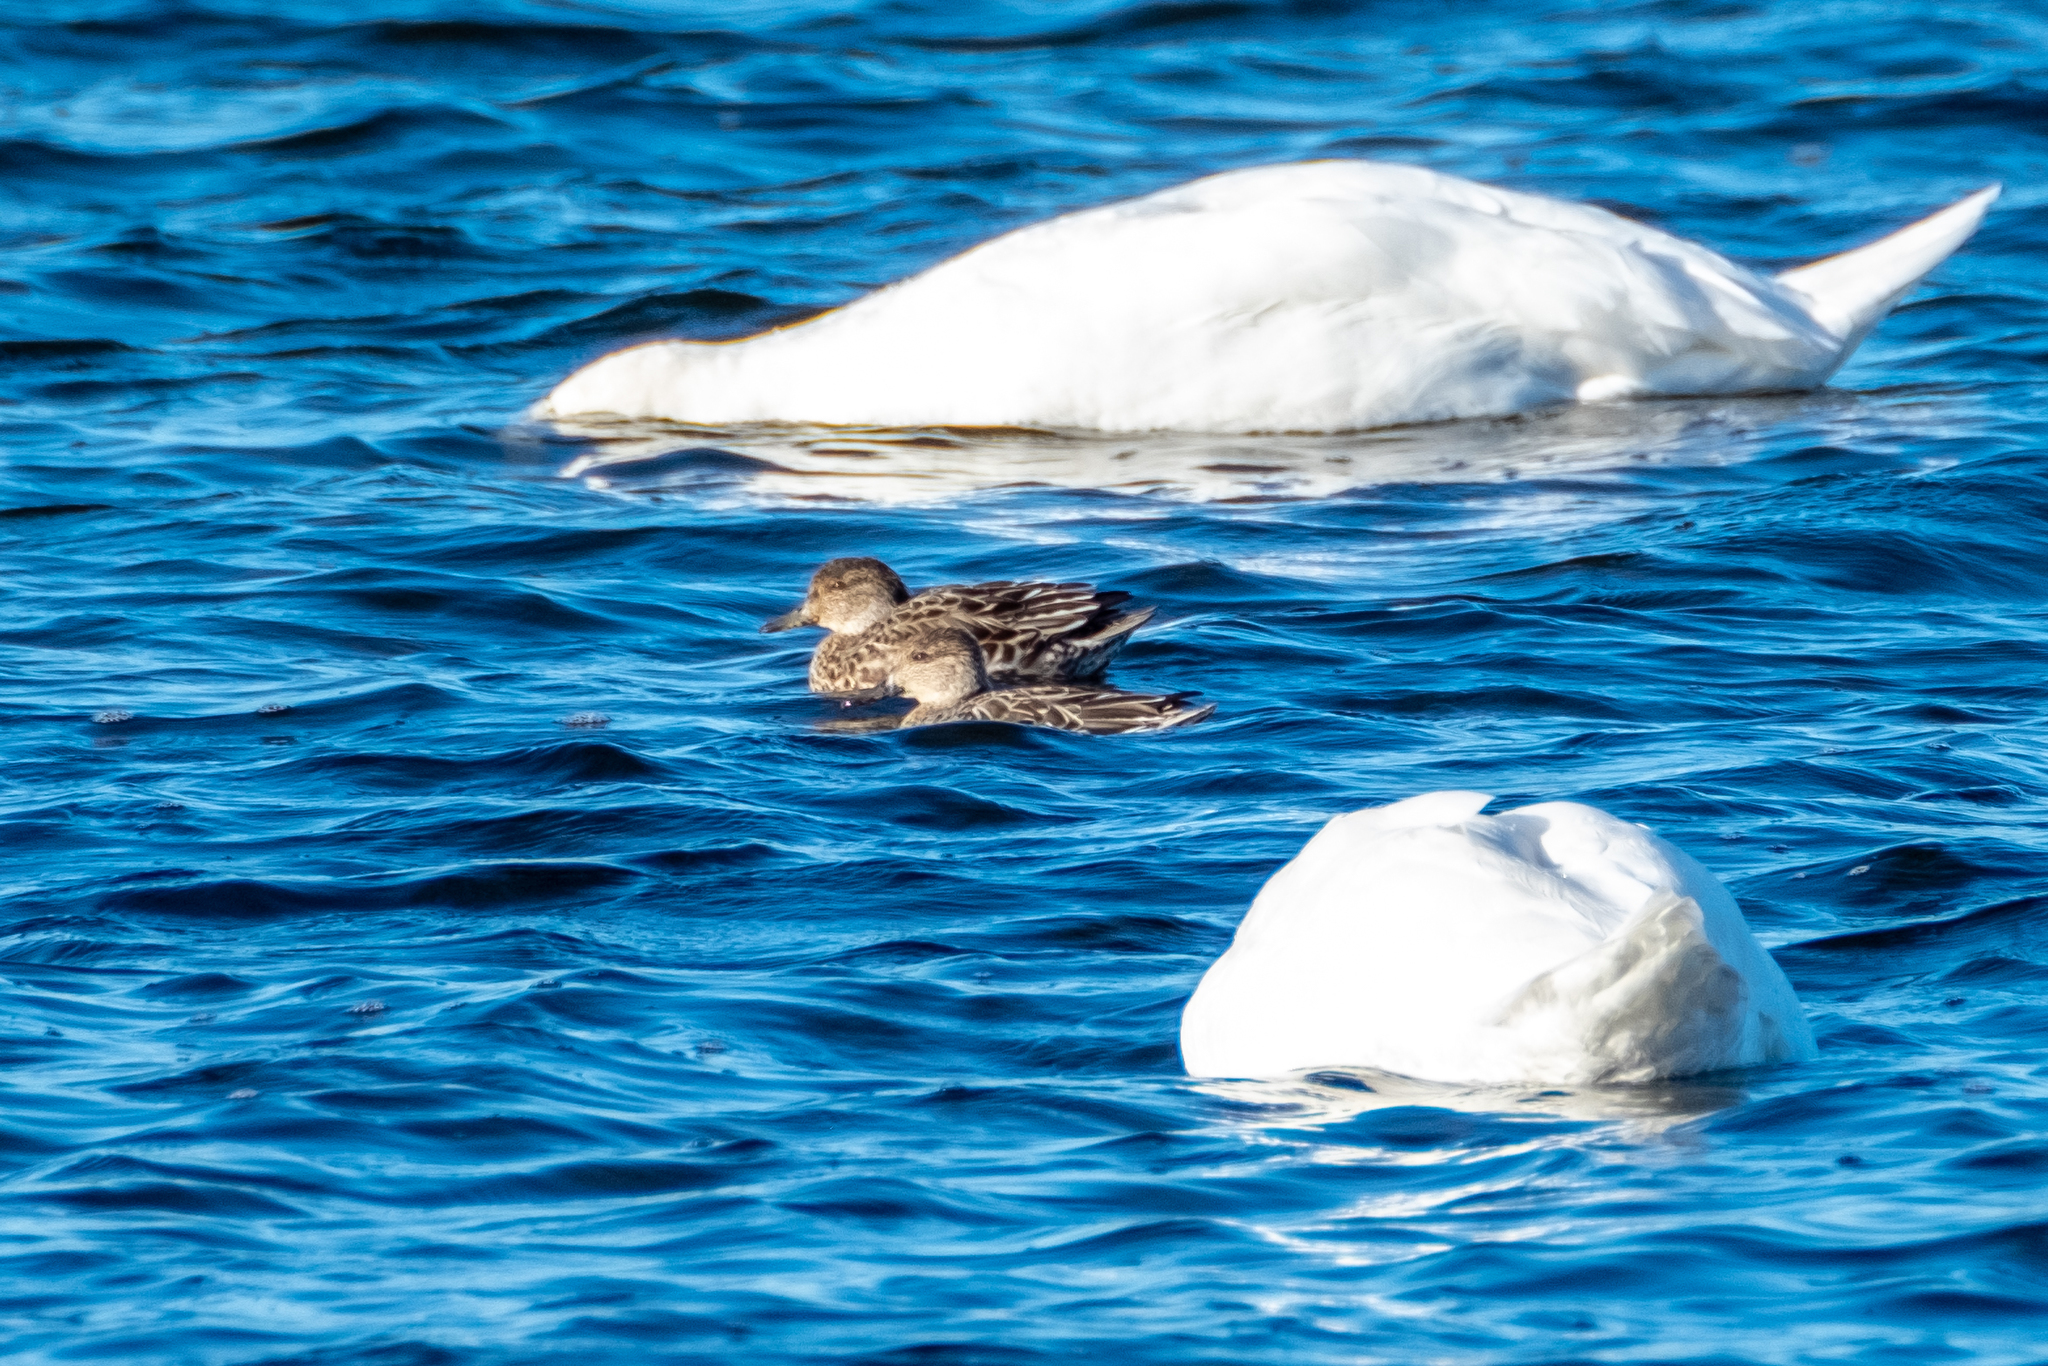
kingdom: Animalia
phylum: Chordata
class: Aves
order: Anseriformes
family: Anatidae
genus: Mareca
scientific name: Mareca strepera
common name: Gadwall
